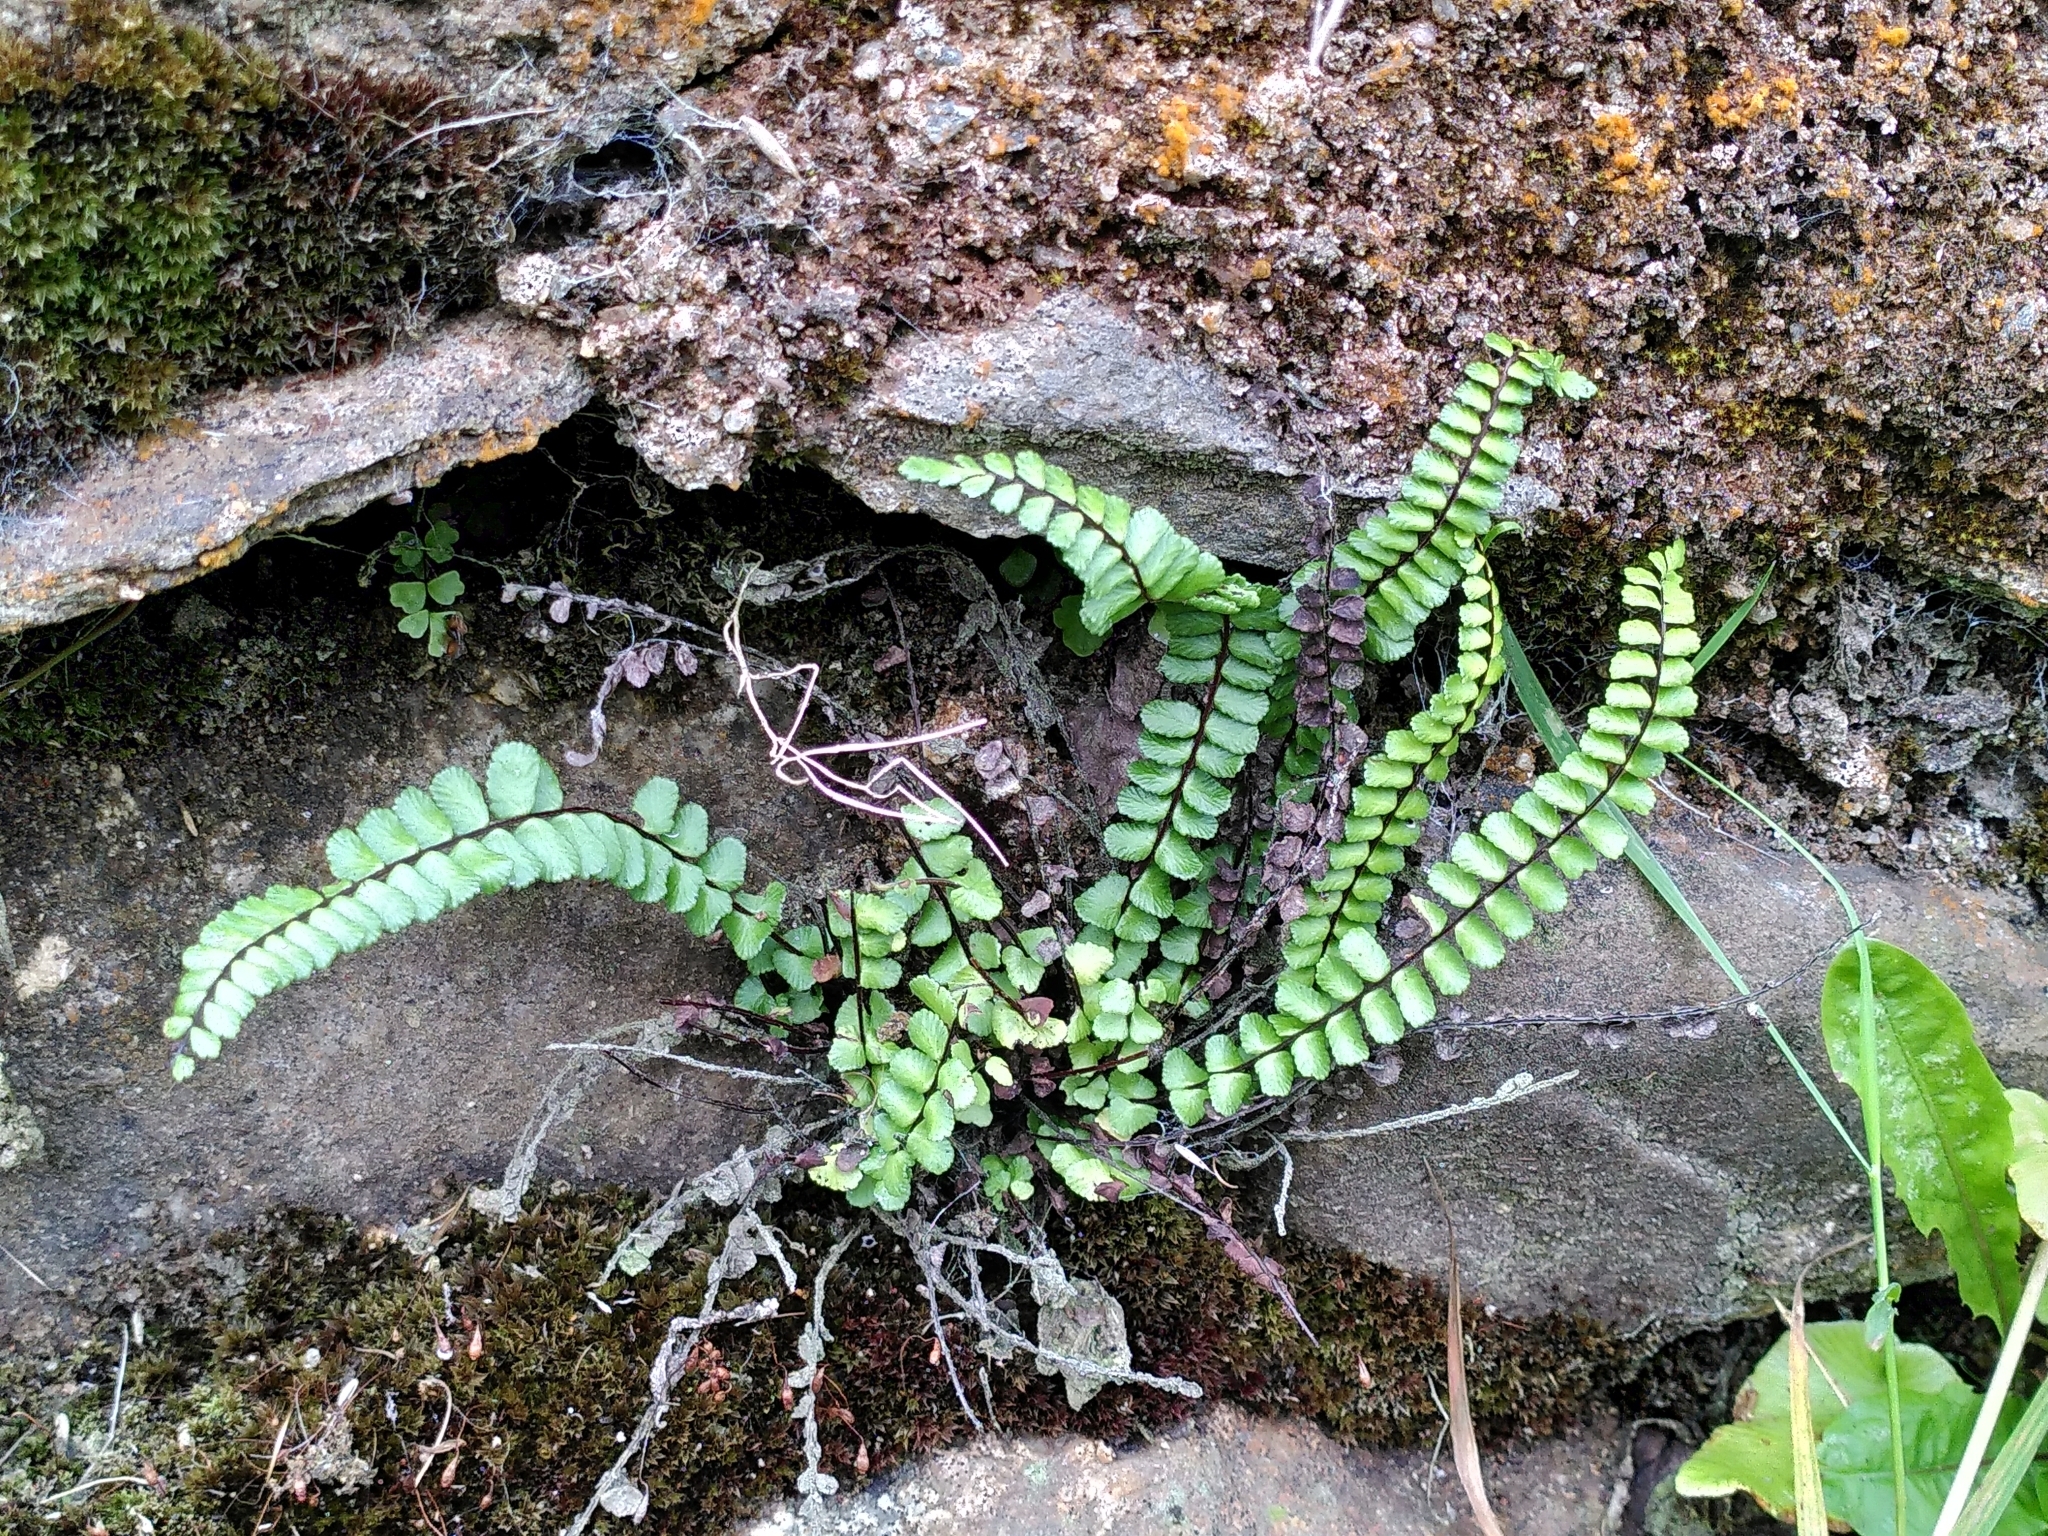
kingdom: Plantae
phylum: Tracheophyta
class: Polypodiopsida
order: Polypodiales
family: Aspleniaceae
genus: Asplenium
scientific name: Asplenium trichomanes
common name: Maidenhair spleenwort
